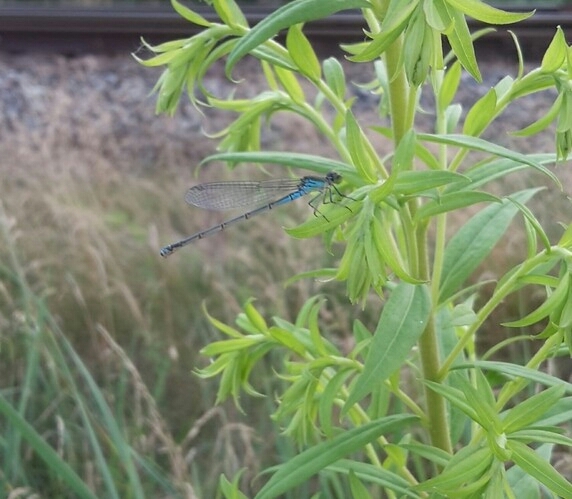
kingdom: Animalia
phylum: Arthropoda
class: Insecta
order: Odonata
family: Coenagrionidae
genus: Erythromma
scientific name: Erythromma viridulum
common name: Small red-eyed damselfly
